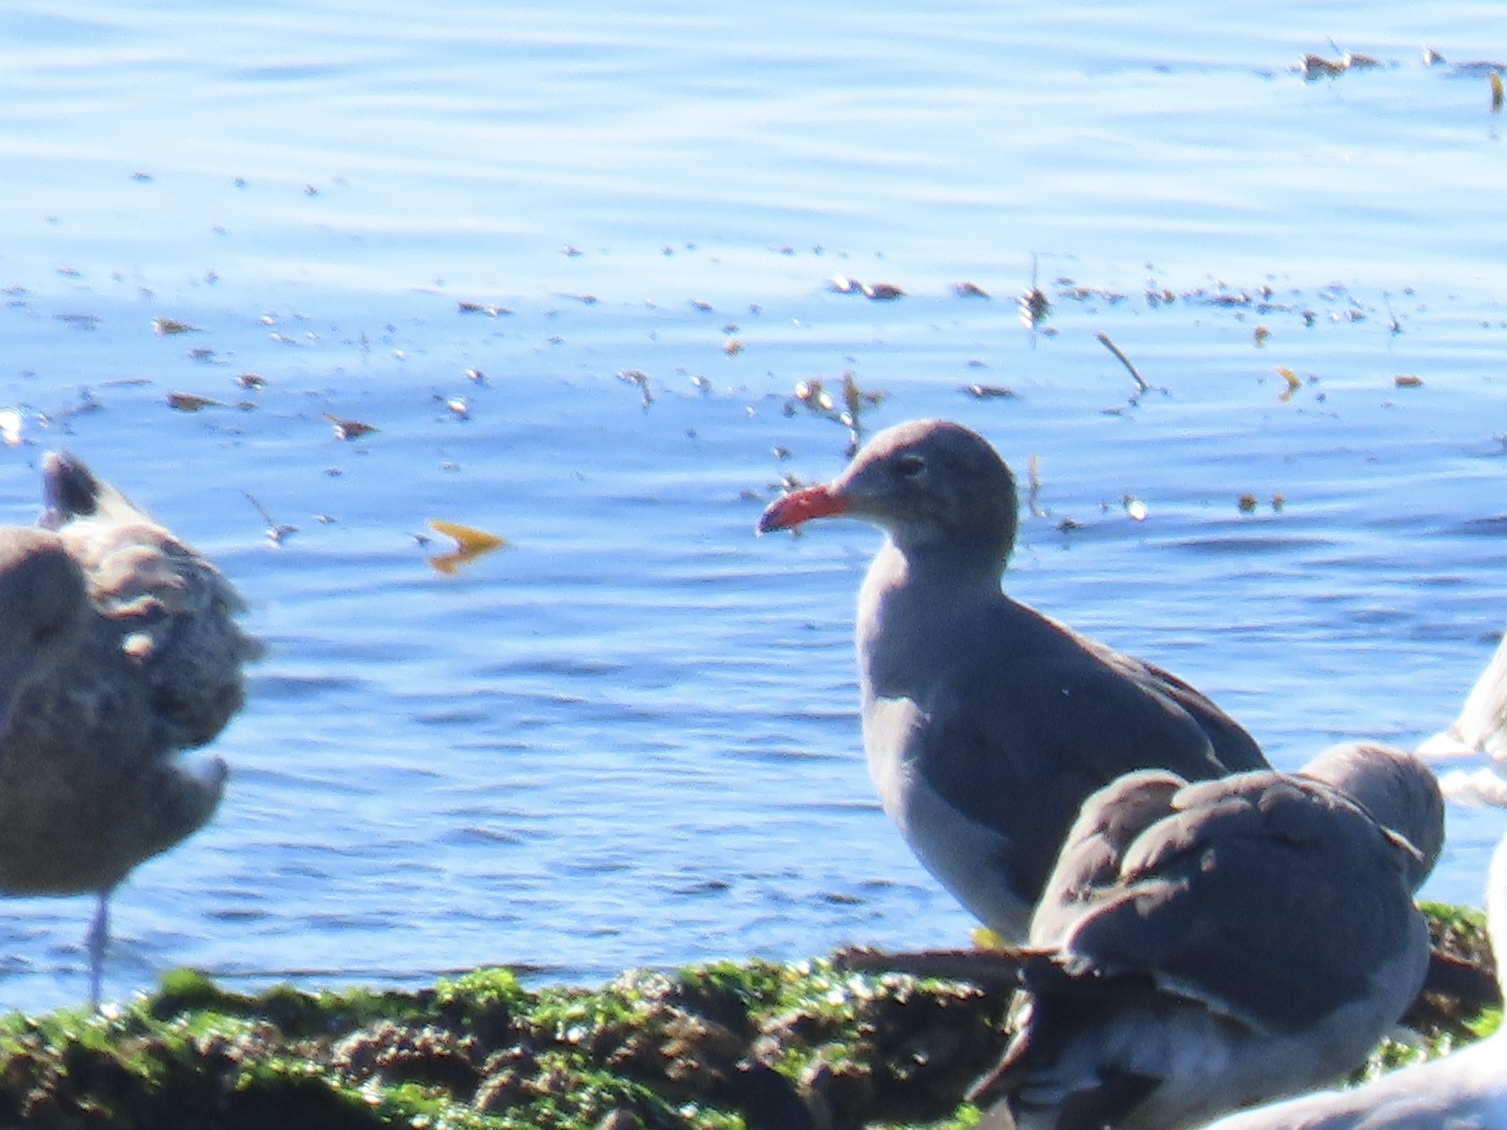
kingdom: Animalia
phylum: Chordata
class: Aves
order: Charadriiformes
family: Laridae
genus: Larus
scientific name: Larus heermanni
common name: Heermann's gull
